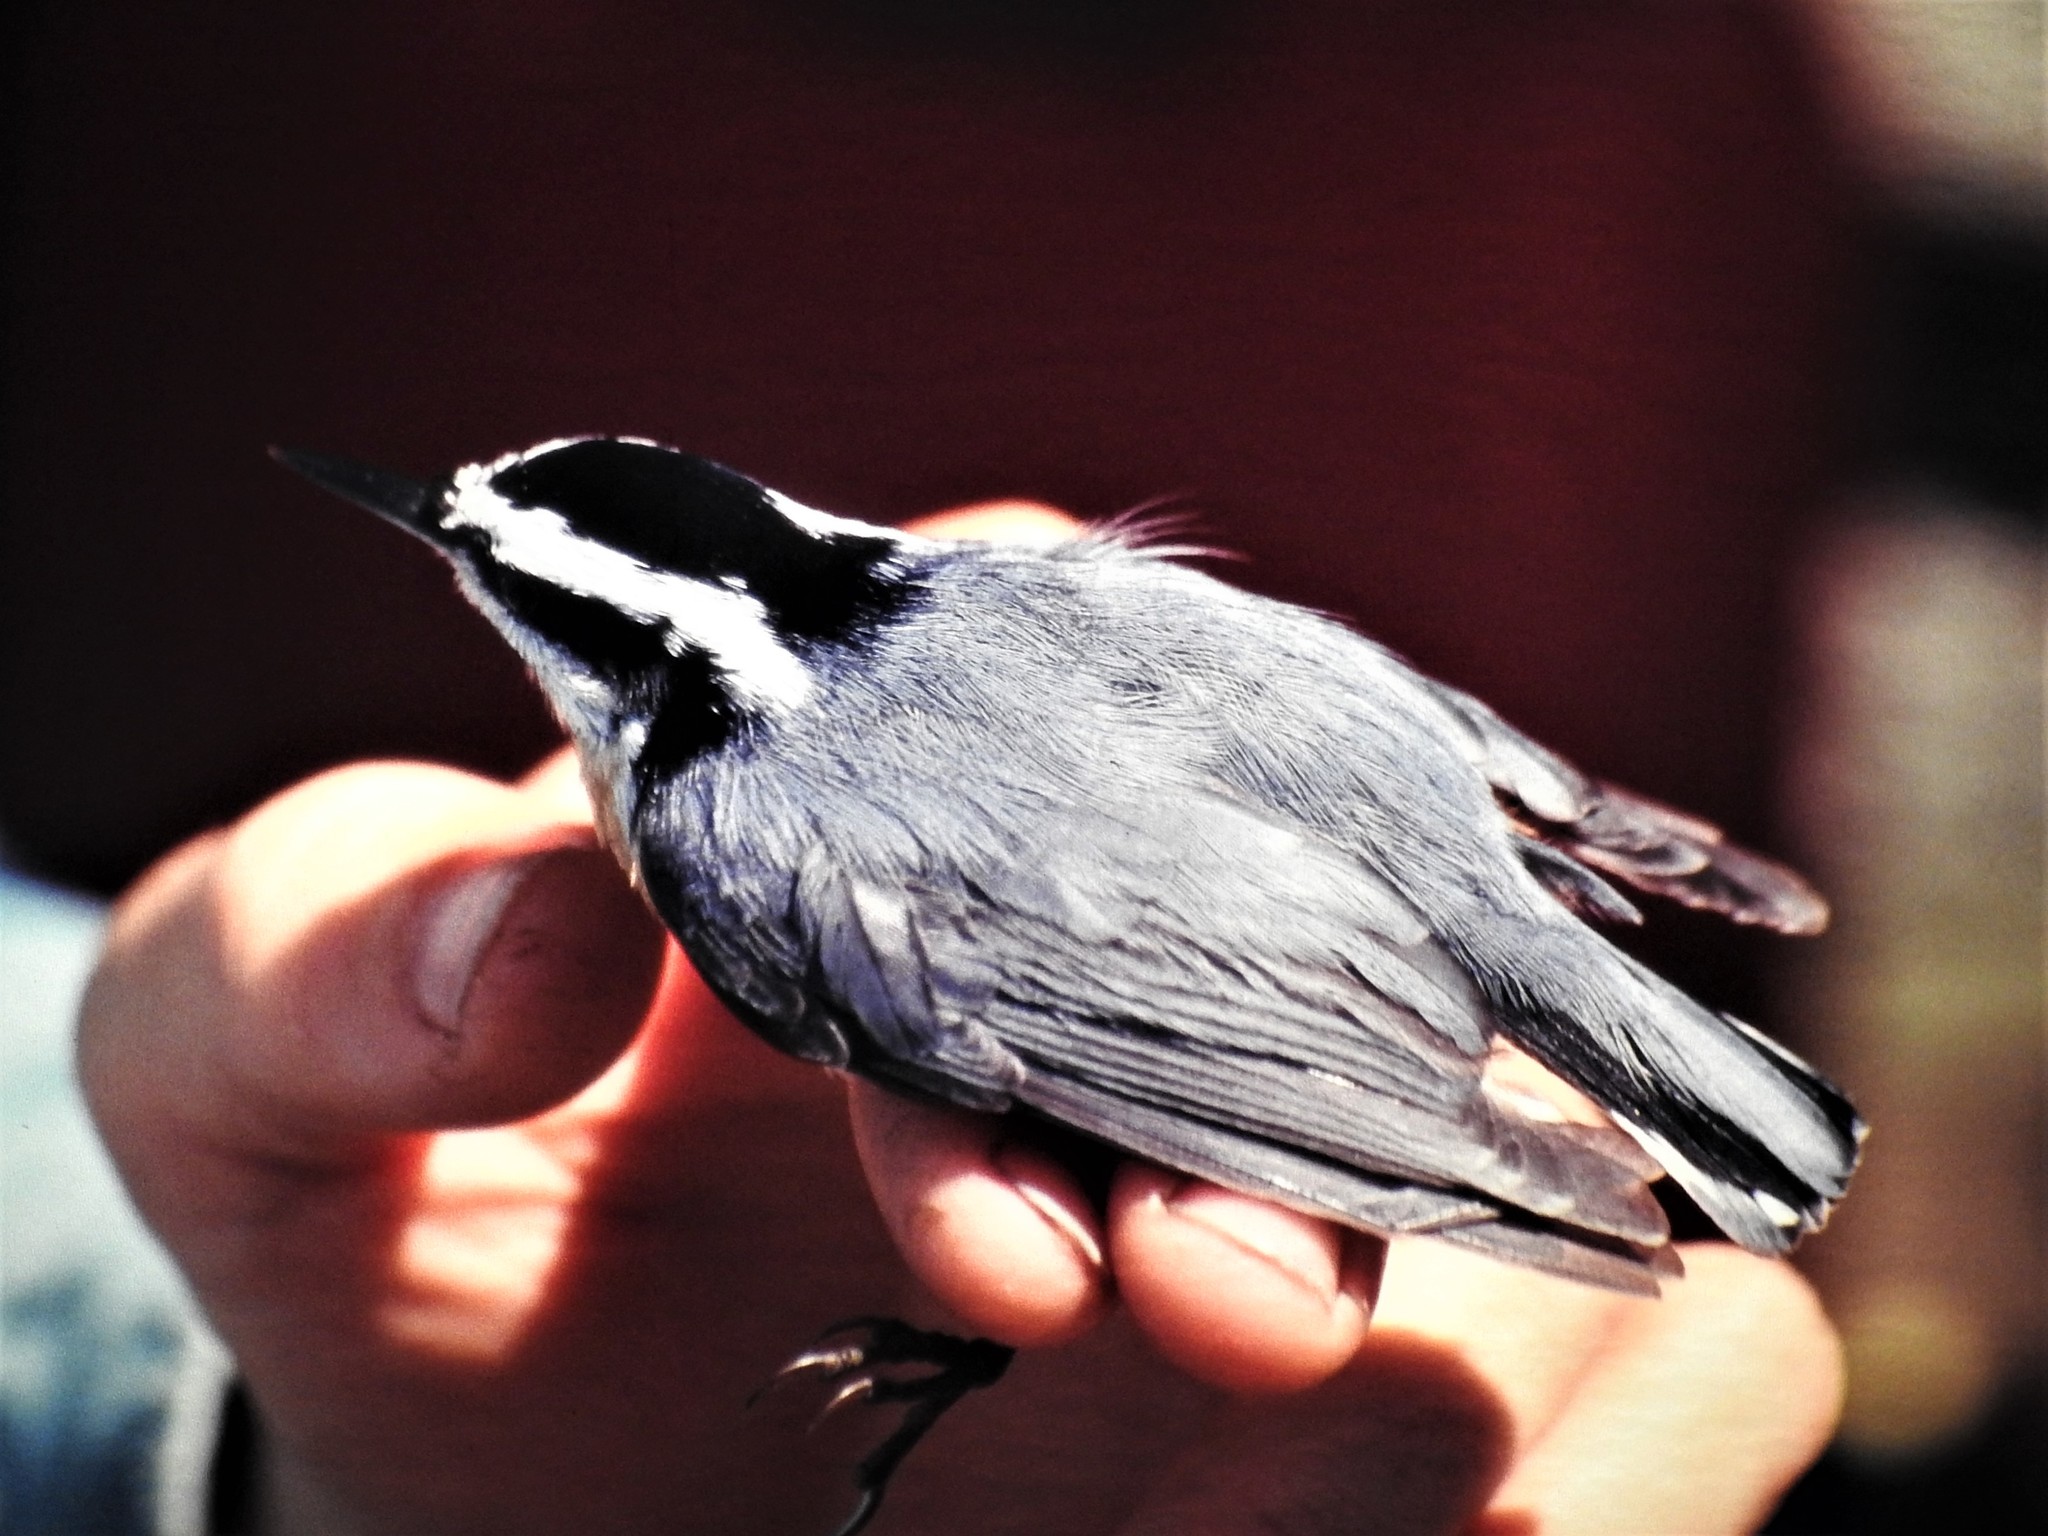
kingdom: Animalia
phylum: Chordata
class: Aves
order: Passeriformes
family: Sittidae
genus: Sitta
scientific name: Sitta canadensis
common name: Red-breasted nuthatch
